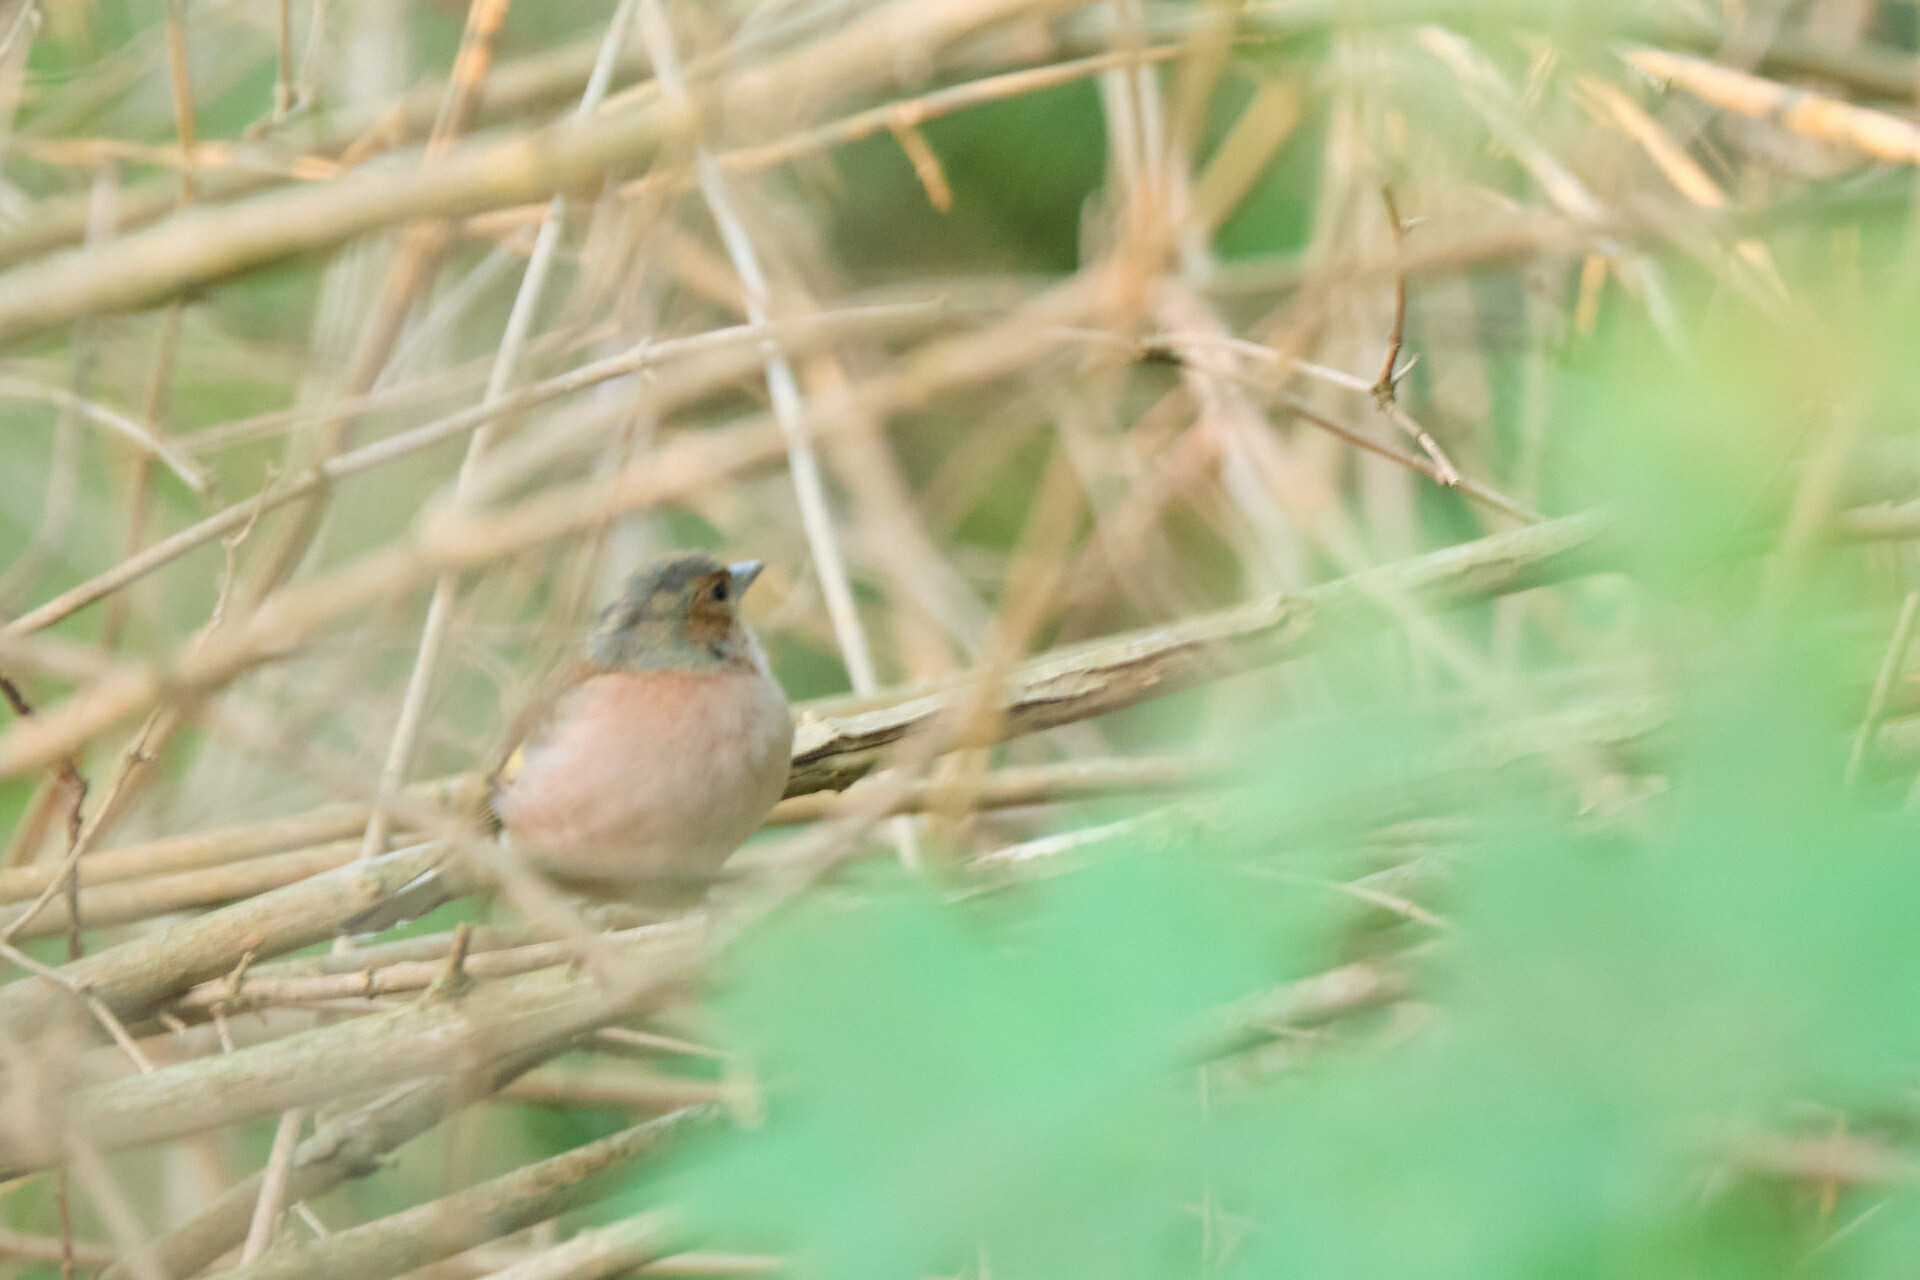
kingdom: Animalia
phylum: Chordata
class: Aves
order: Passeriformes
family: Fringillidae
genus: Fringilla
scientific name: Fringilla coelebs
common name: Common chaffinch
